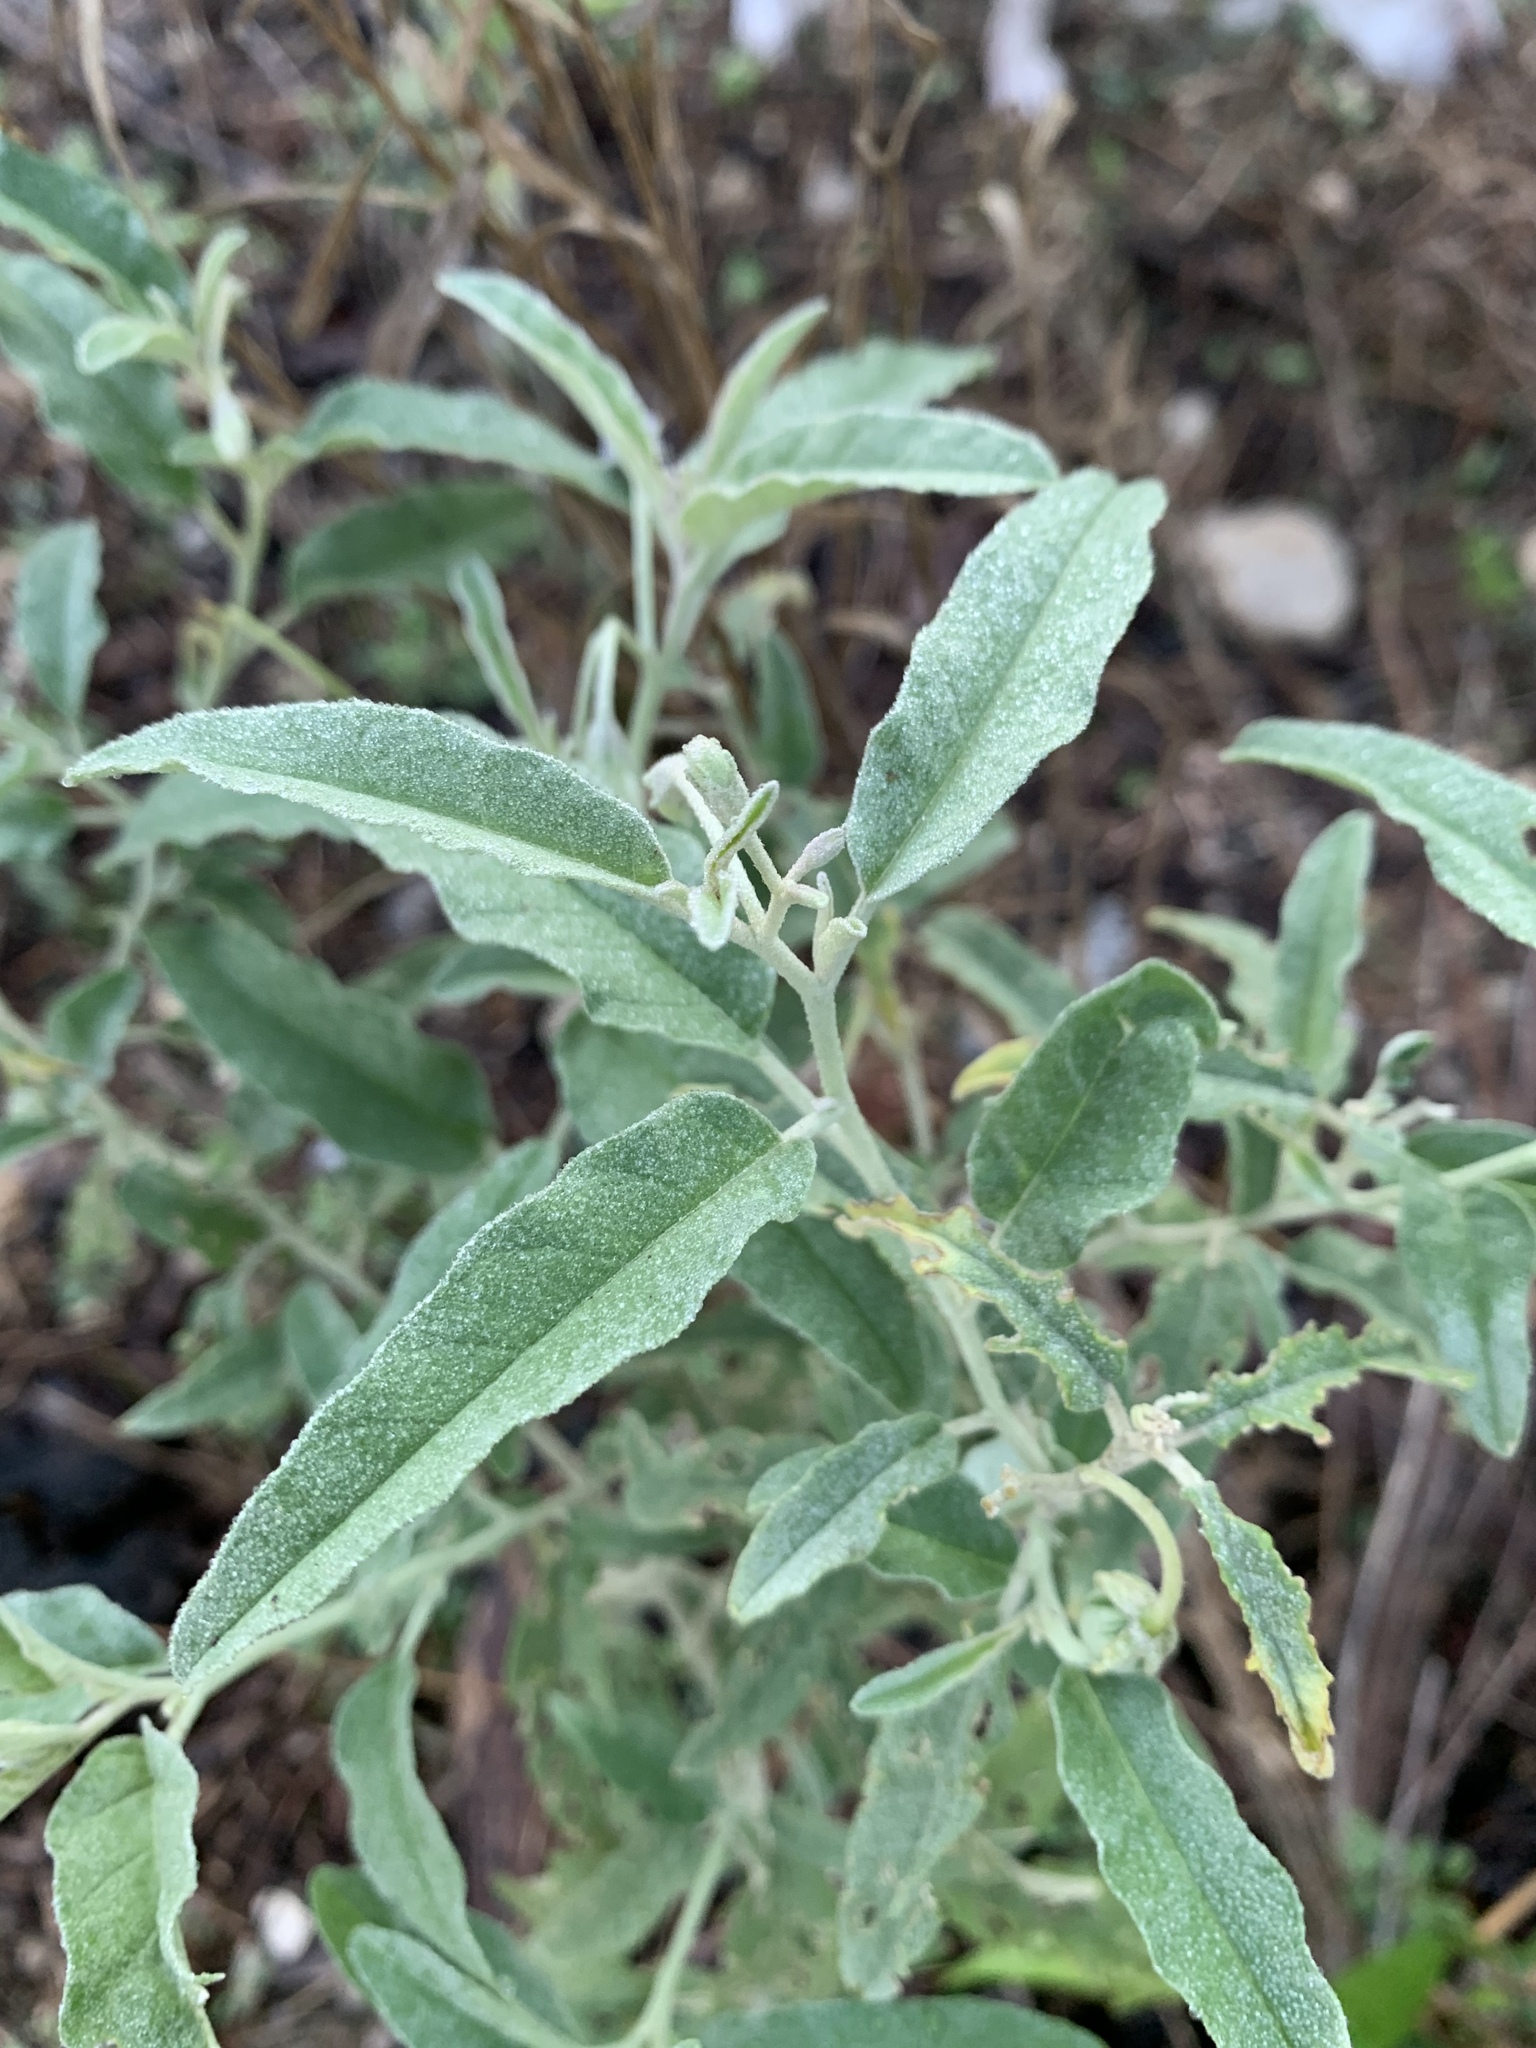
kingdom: Plantae
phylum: Tracheophyta
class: Magnoliopsida
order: Solanales
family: Solanaceae
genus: Solanum
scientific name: Solanum elaeagnifolium
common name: Silverleaf nightshade
